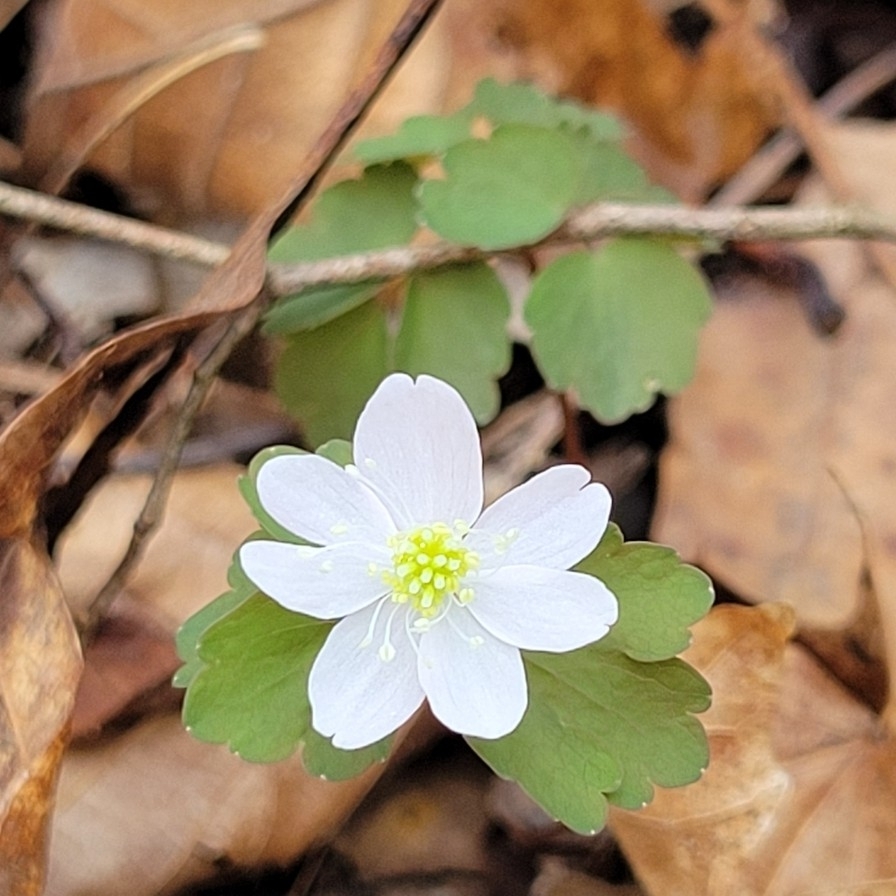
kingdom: Plantae
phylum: Tracheophyta
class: Magnoliopsida
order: Ranunculales
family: Ranunculaceae
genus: Thalictrum
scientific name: Thalictrum thalictroides
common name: Rue-anemone
